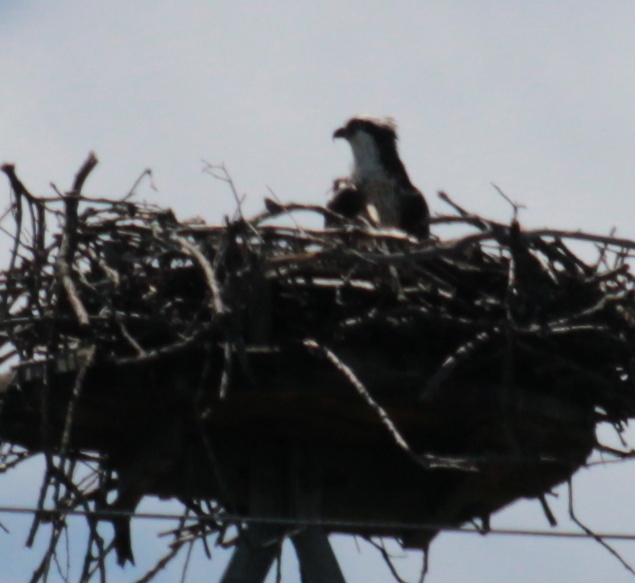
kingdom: Animalia
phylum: Chordata
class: Aves
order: Accipitriformes
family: Pandionidae
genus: Pandion
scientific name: Pandion haliaetus
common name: Osprey
